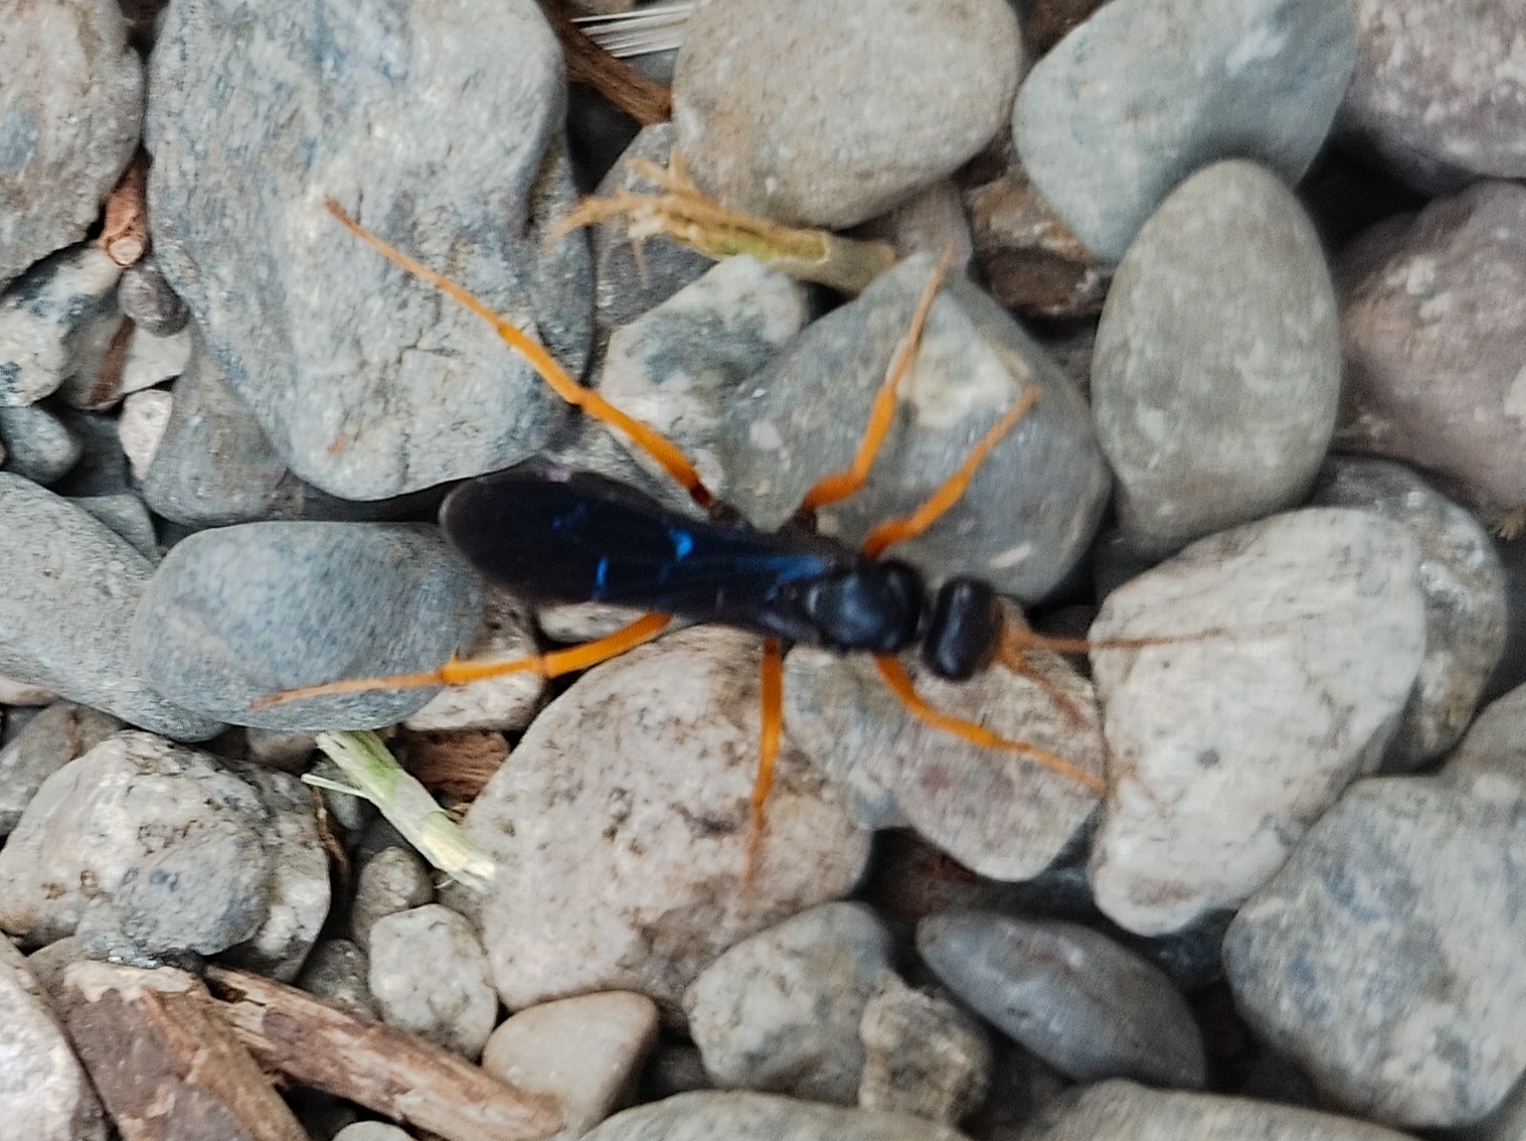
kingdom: Animalia
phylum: Arthropoda
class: Insecta
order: Hymenoptera
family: Pompilidae
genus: Sphictostethus
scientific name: Sphictostethus xanthopus
